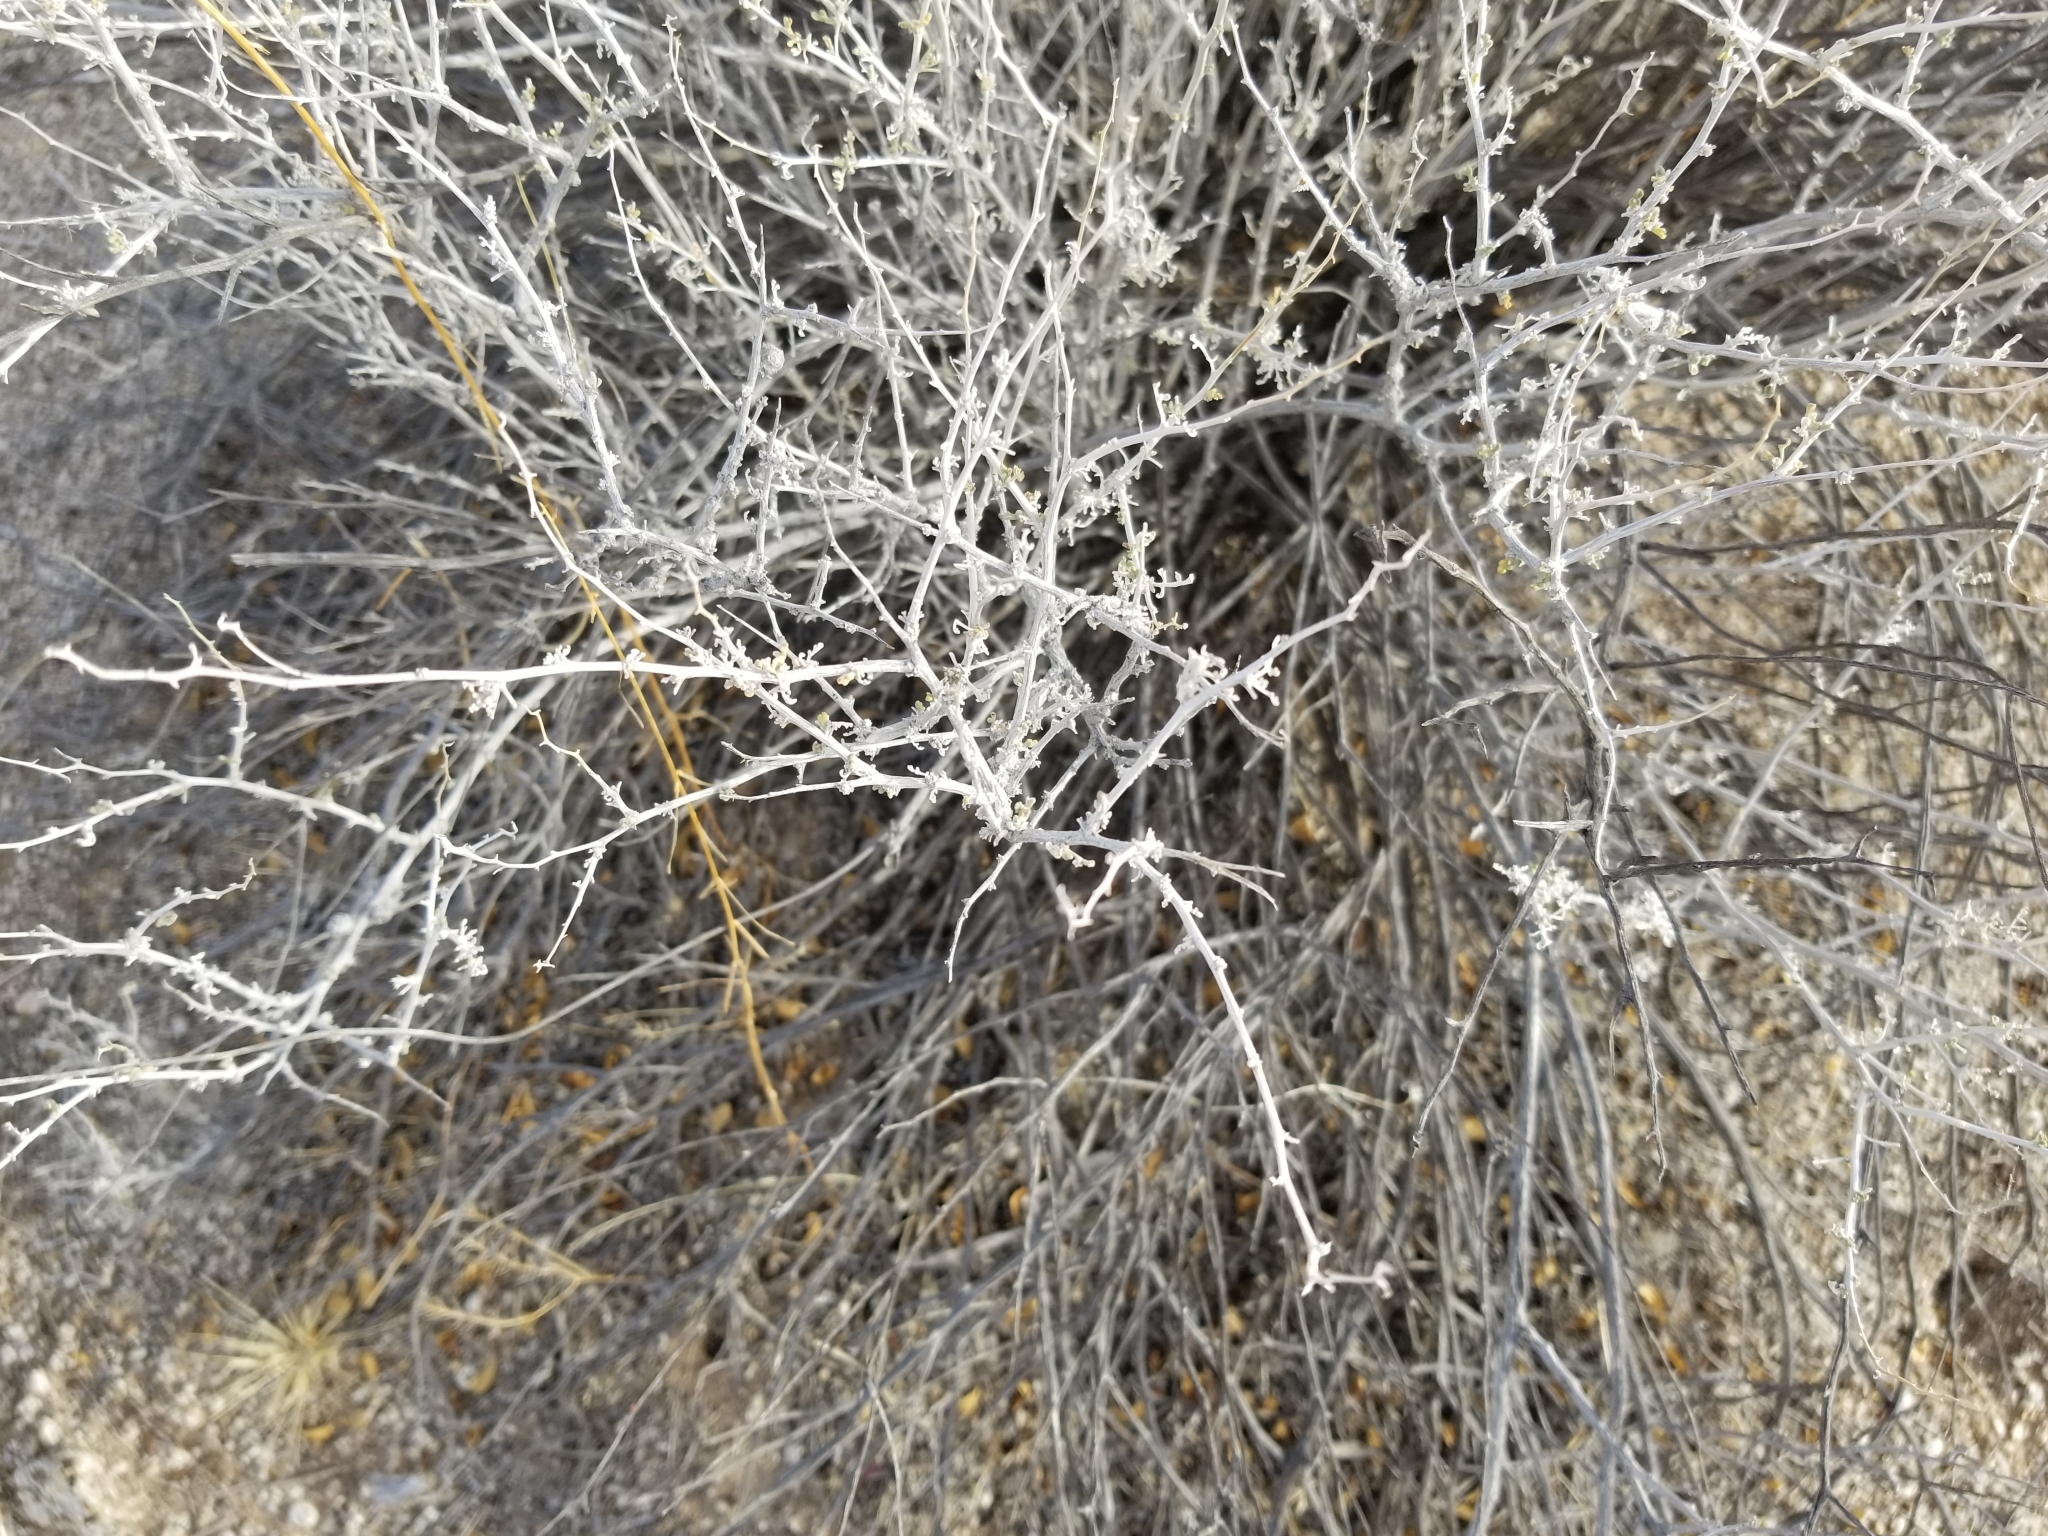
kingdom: Plantae
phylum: Tracheophyta
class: Magnoliopsida
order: Asterales
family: Asteraceae
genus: Ambrosia
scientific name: Ambrosia dumosa
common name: Bur-sage
